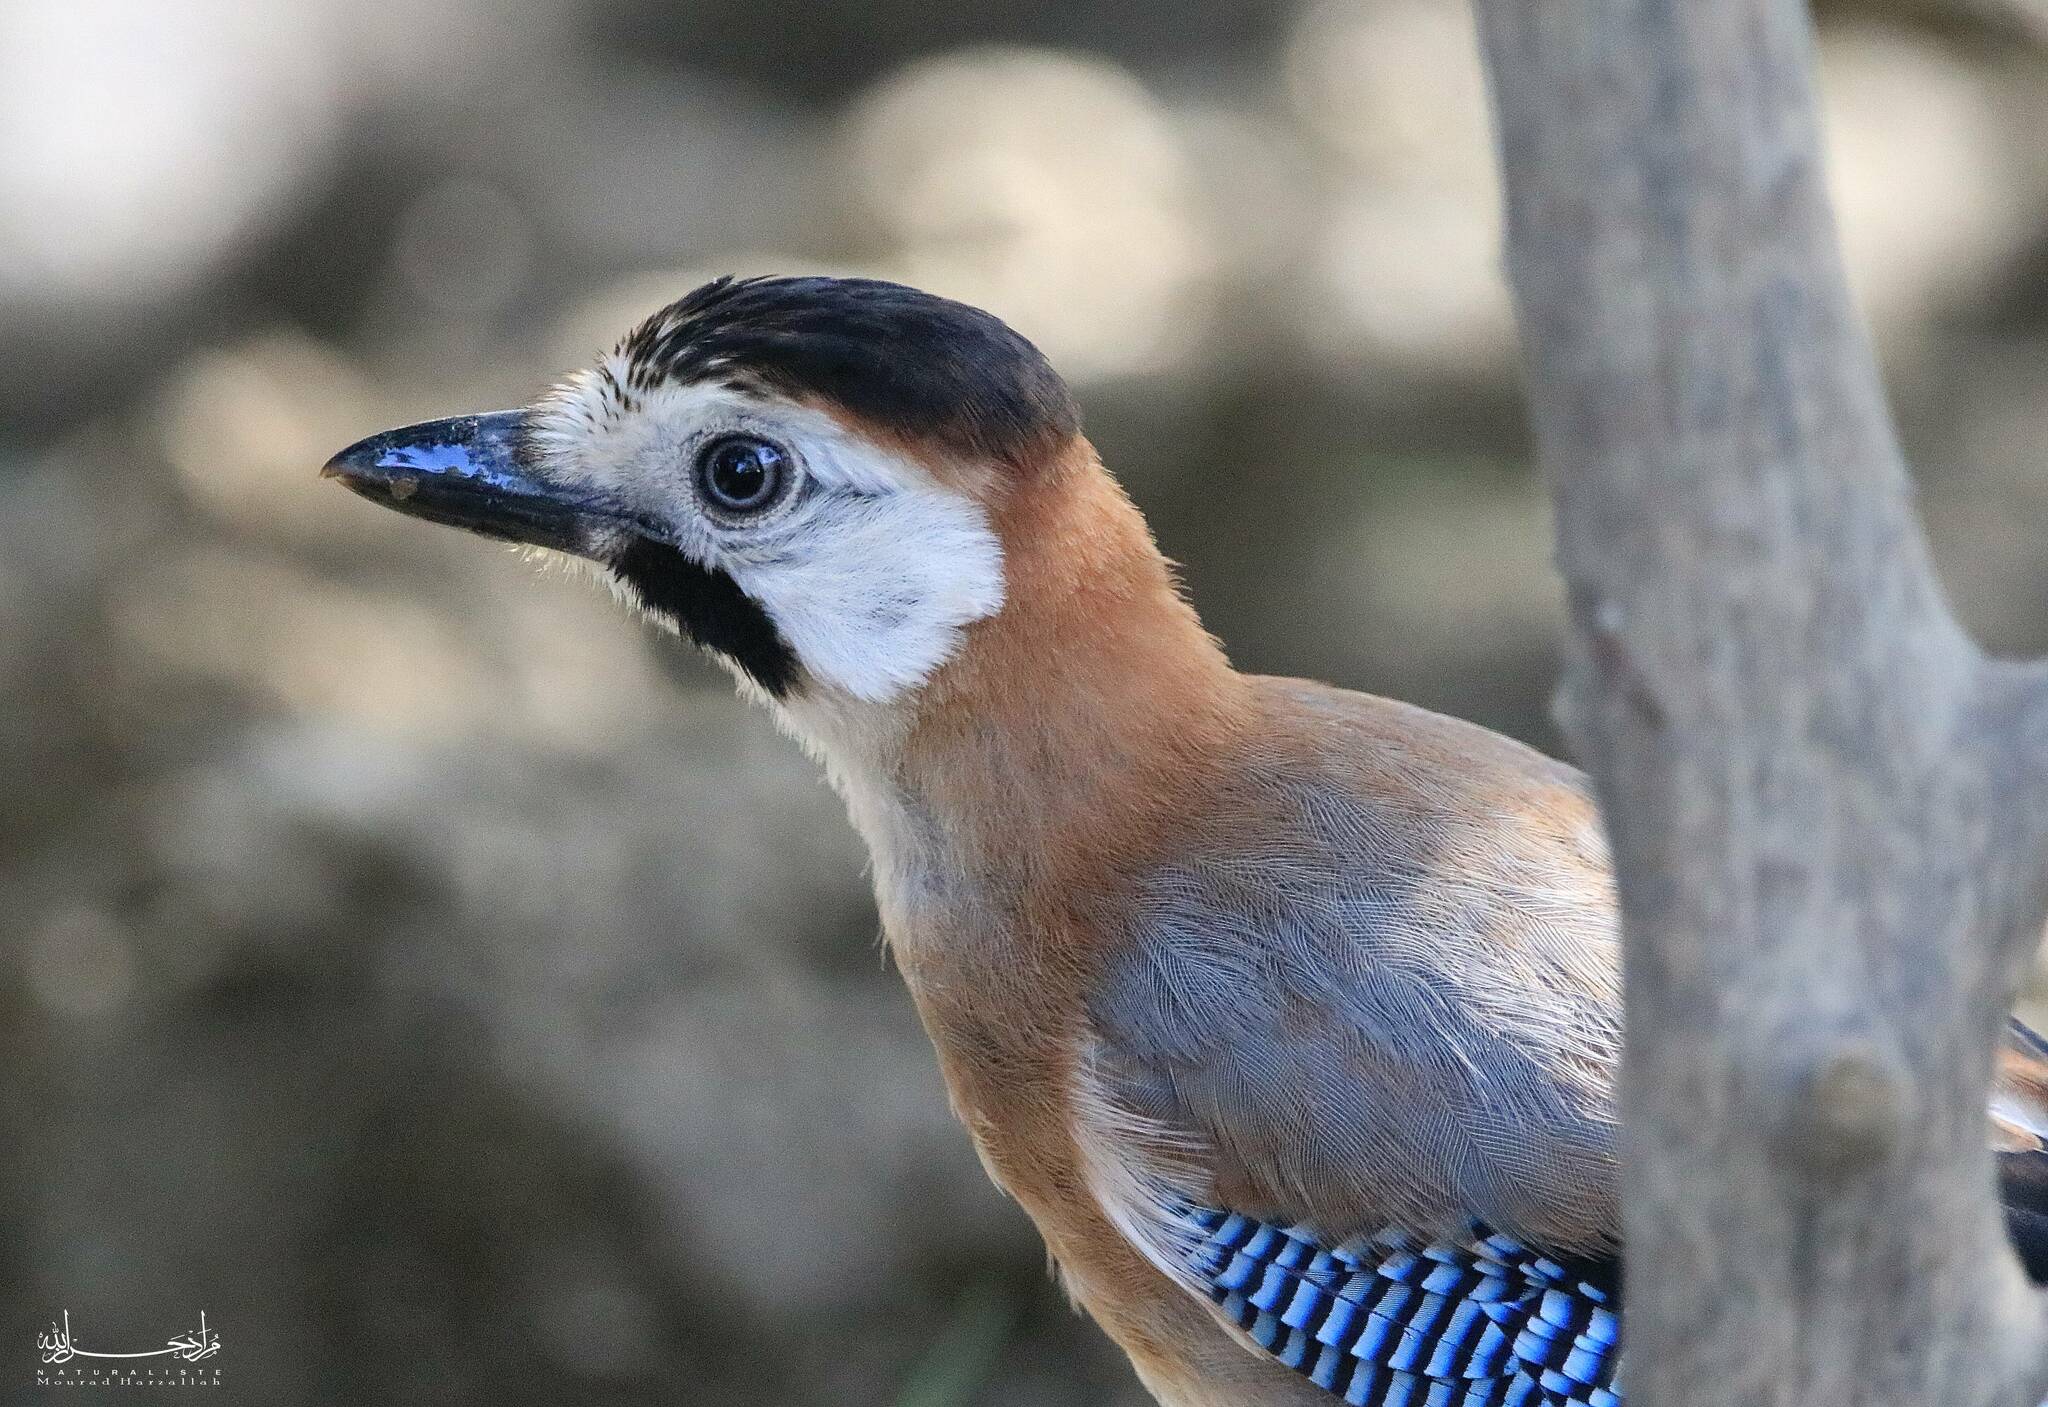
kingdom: Animalia
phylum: Chordata
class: Aves
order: Passeriformes
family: Corvidae
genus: Garrulus
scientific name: Garrulus glandarius
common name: Eurasian jay
